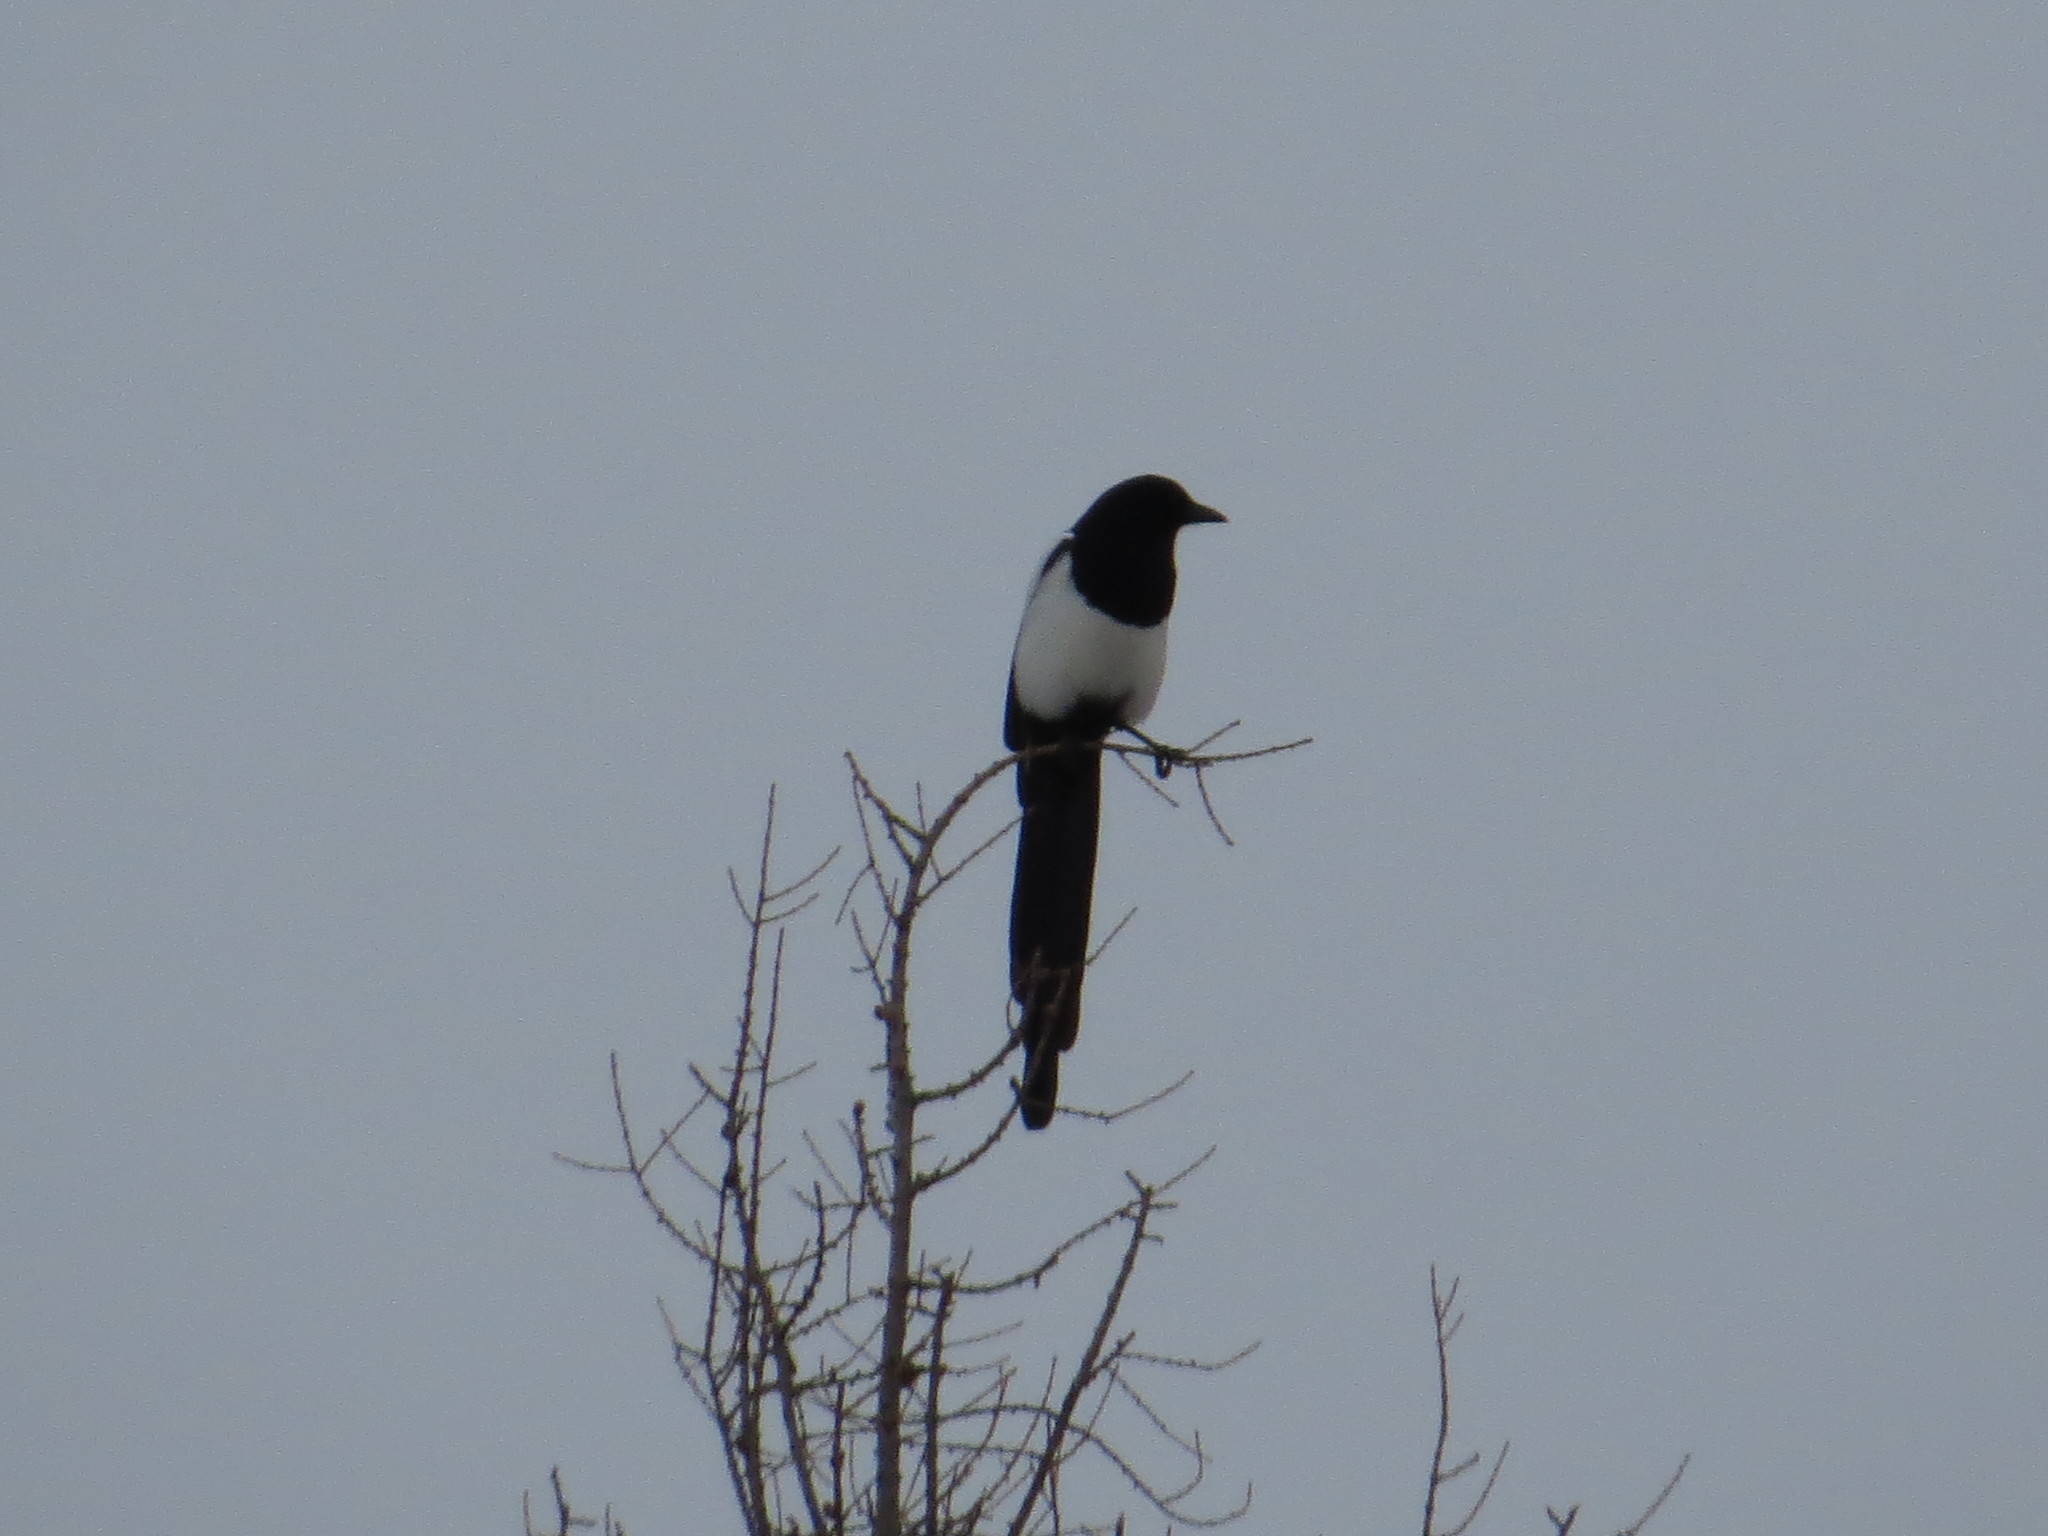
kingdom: Animalia
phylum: Chordata
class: Aves
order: Passeriformes
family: Corvidae
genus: Pica
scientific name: Pica hudsonia
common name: Black-billed magpie
